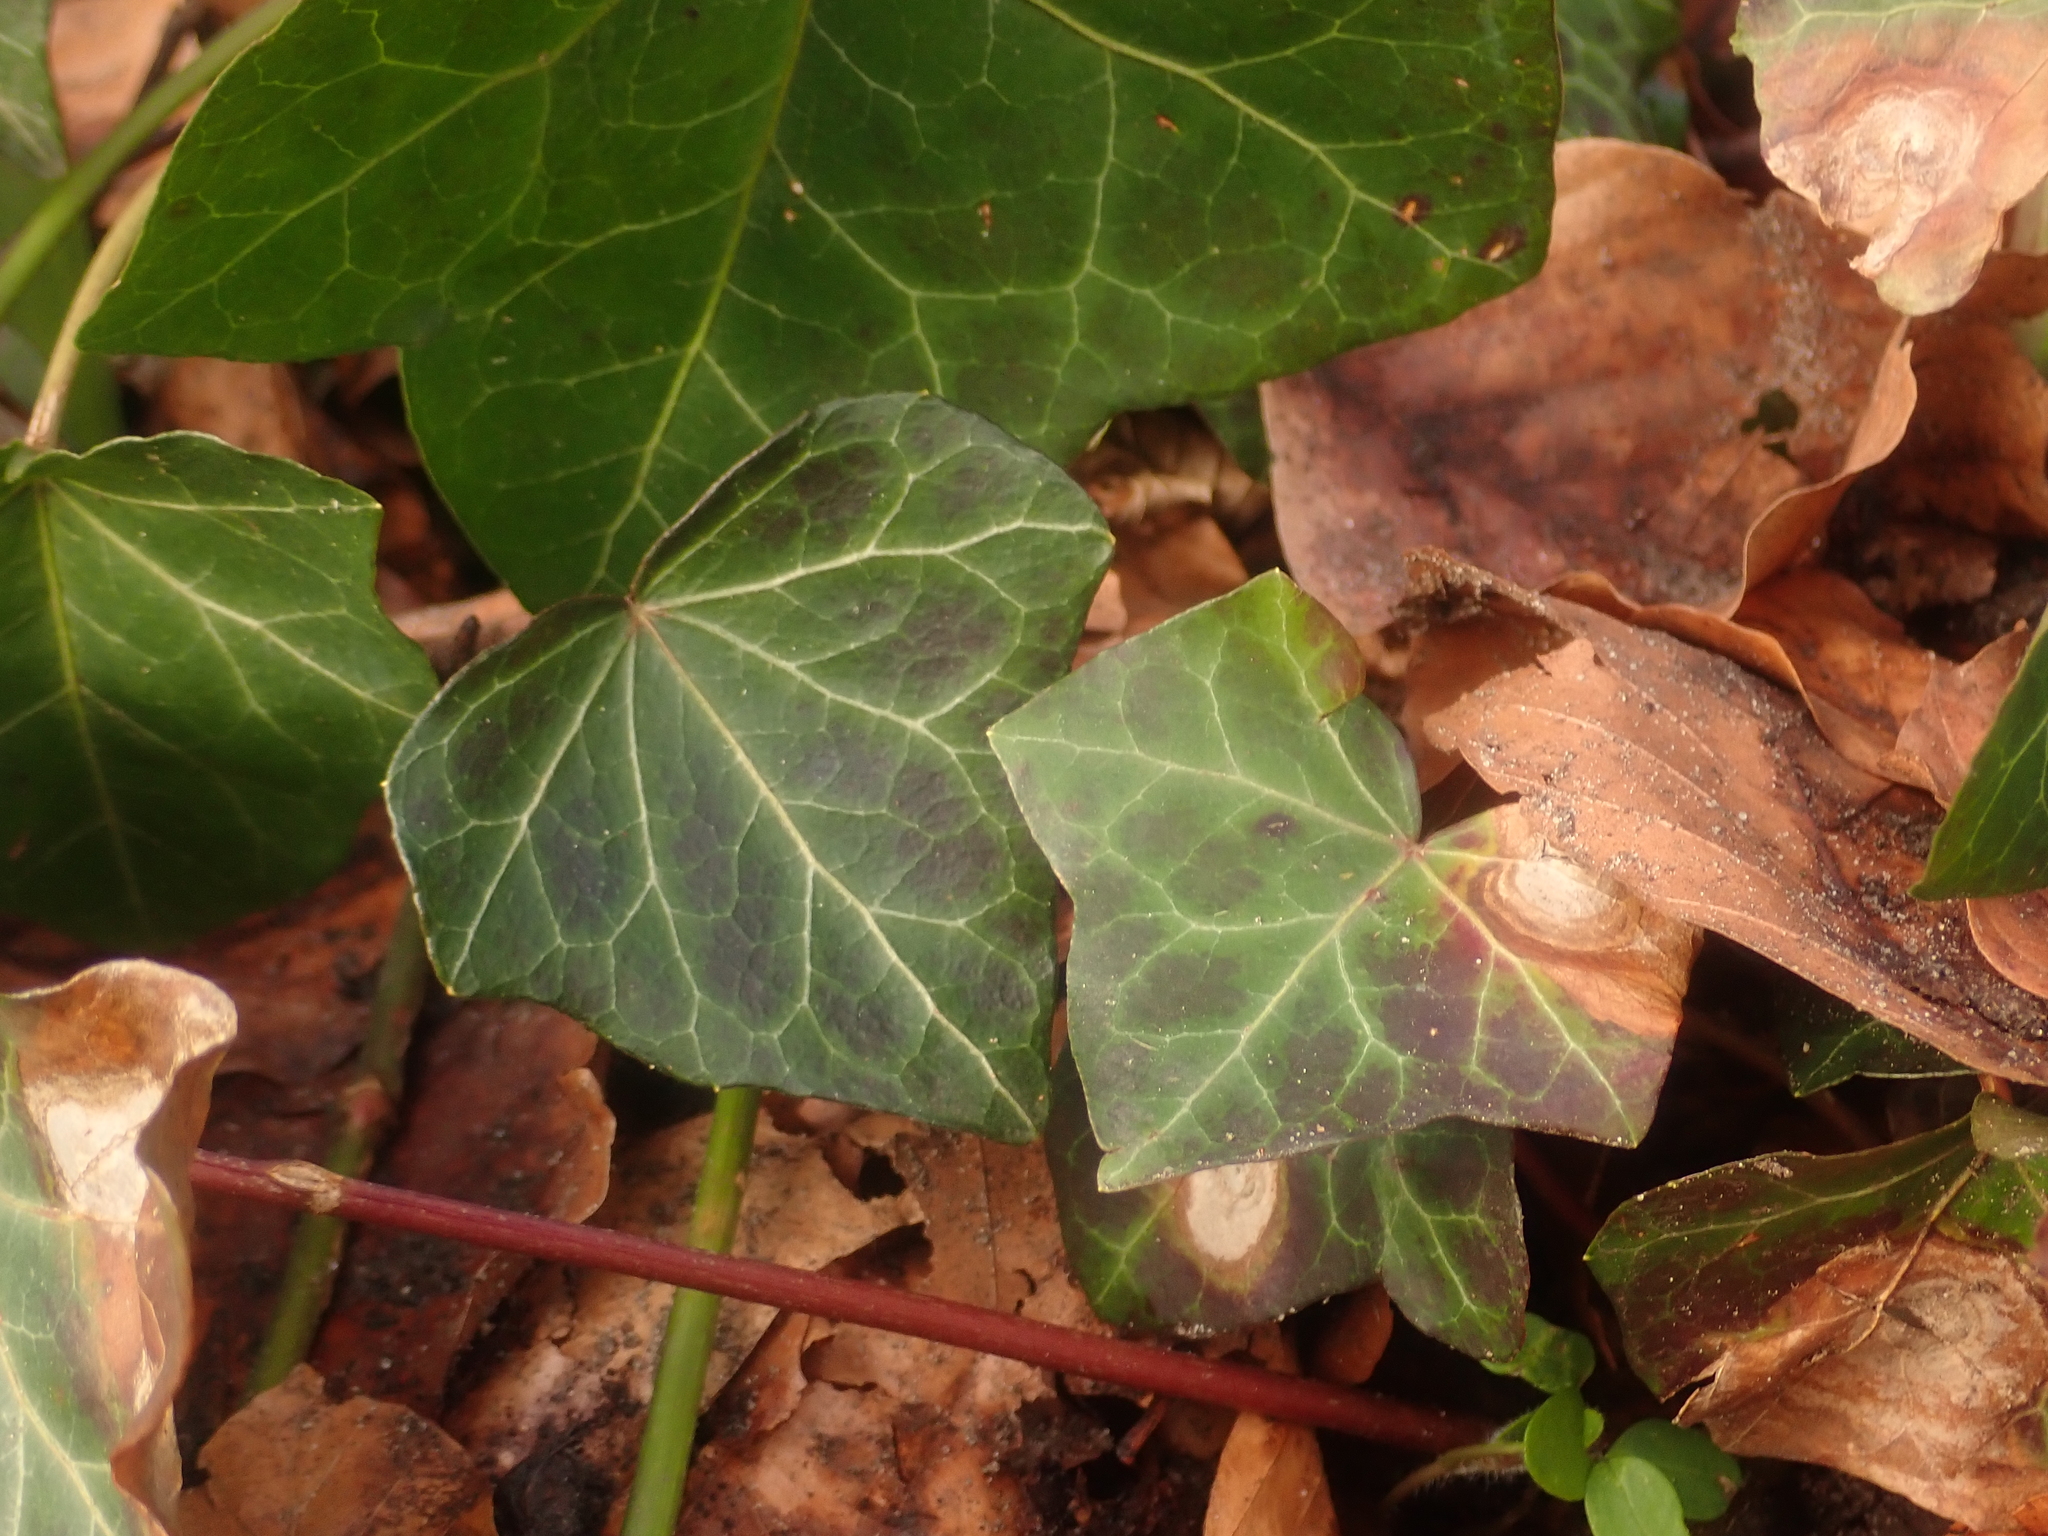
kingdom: Plantae
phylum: Tracheophyta
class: Magnoliopsida
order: Apiales
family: Araliaceae
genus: Hedera
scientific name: Hedera helix
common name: Ivy
